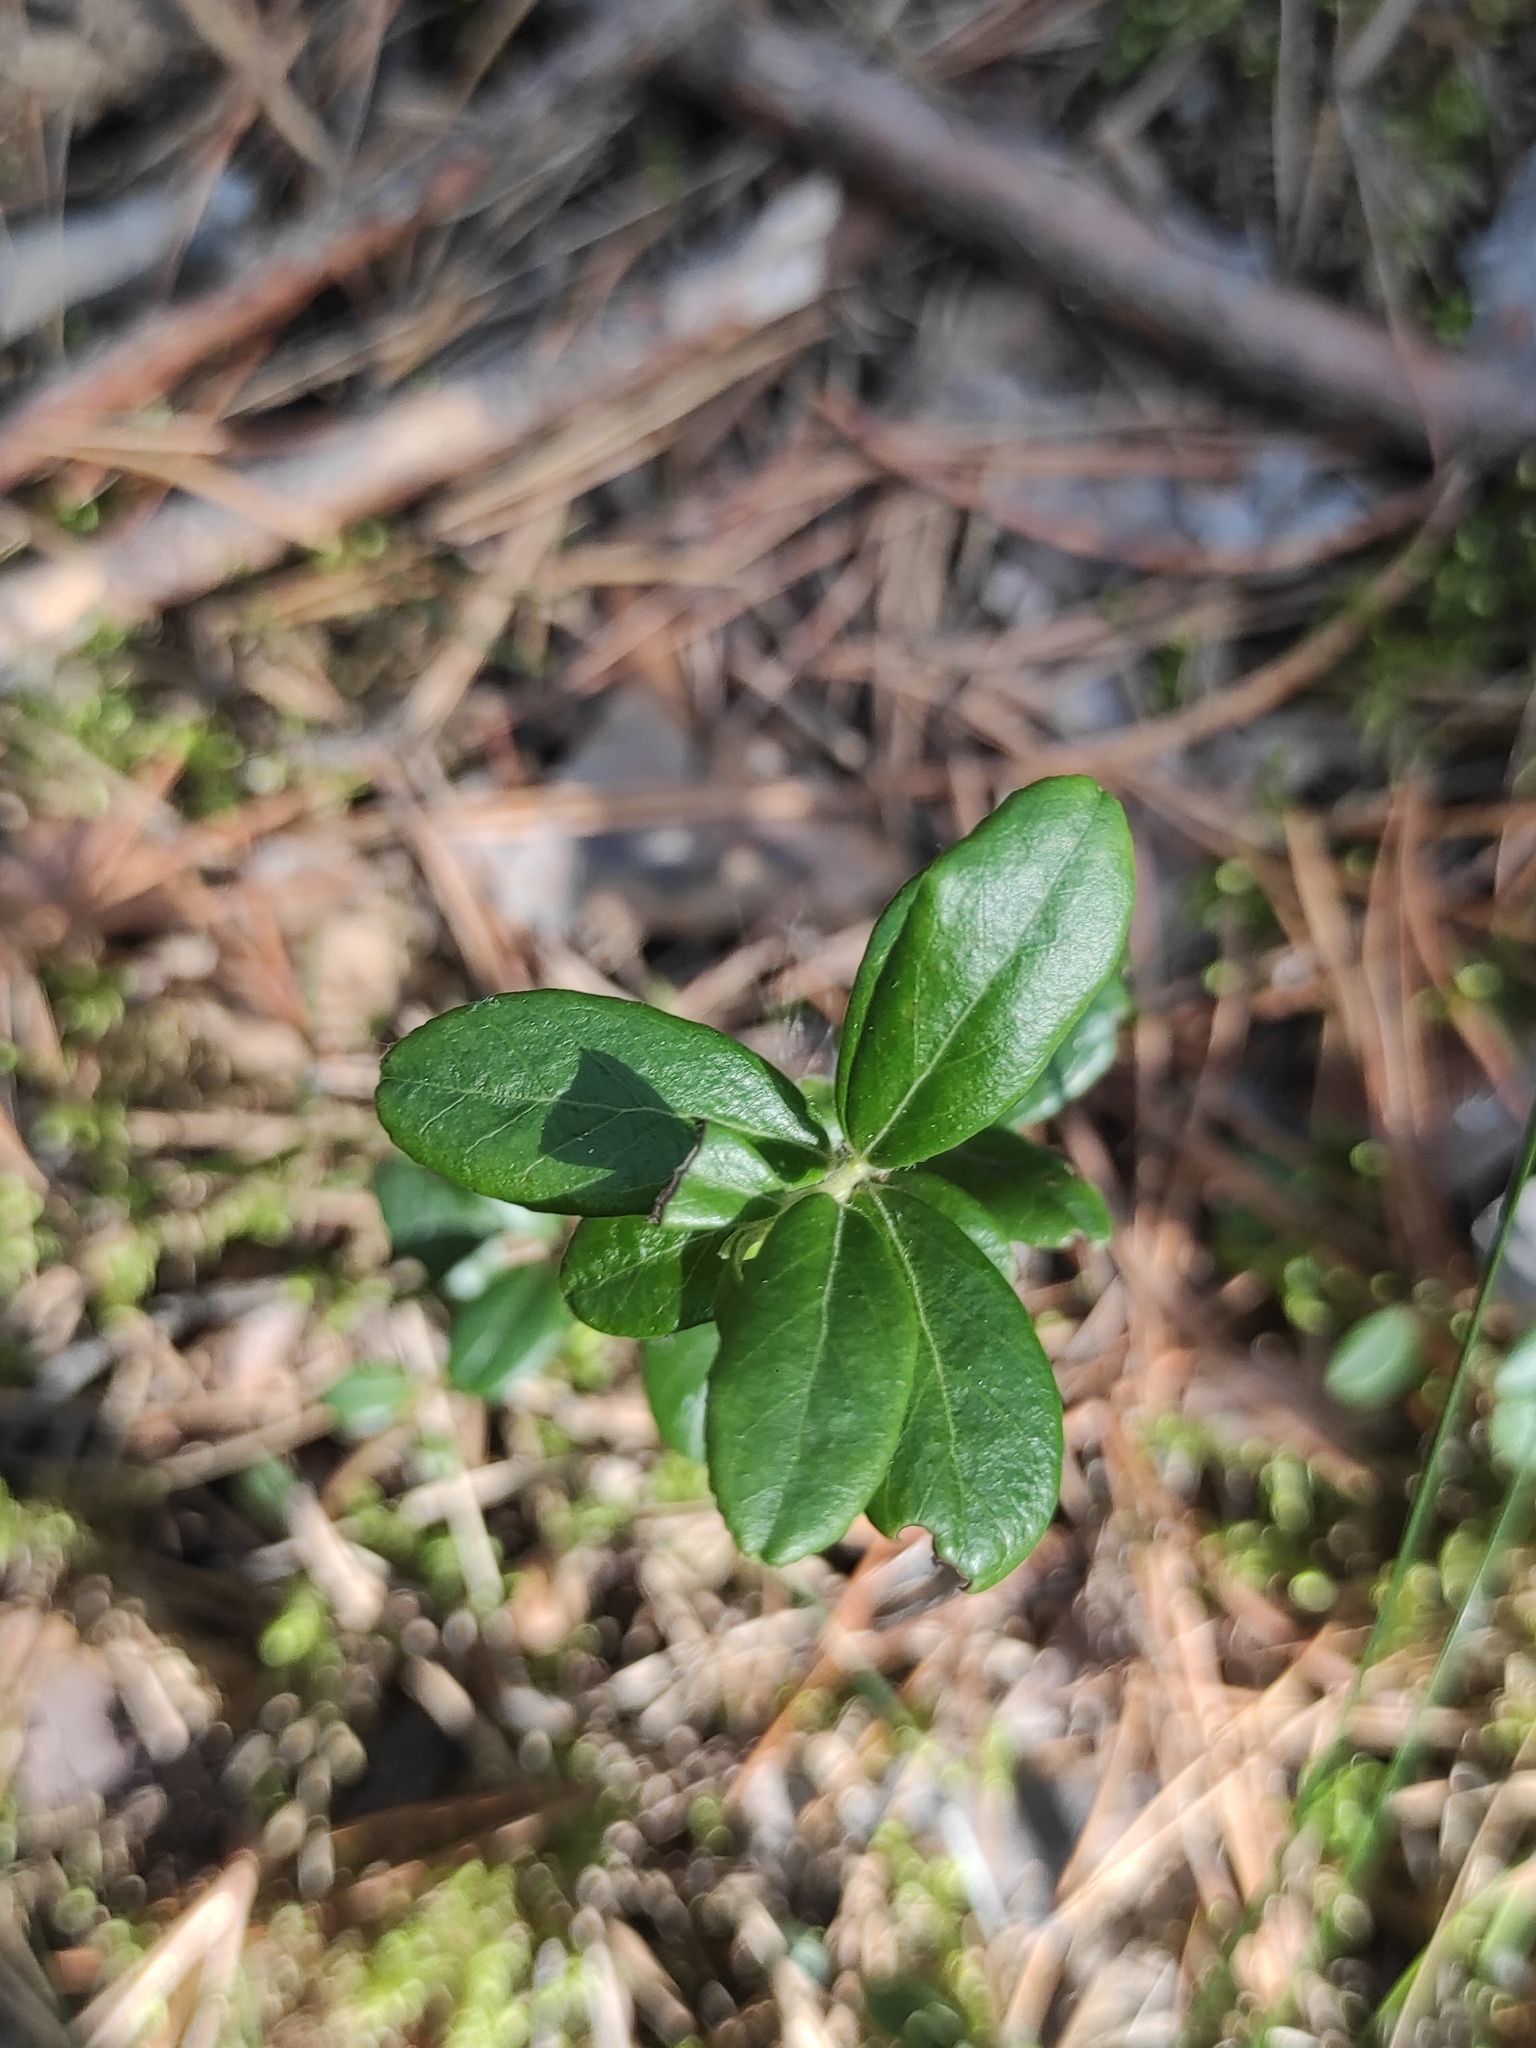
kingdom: Plantae
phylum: Tracheophyta
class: Magnoliopsida
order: Ericales
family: Ericaceae
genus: Vaccinium
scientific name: Vaccinium vitis-idaea
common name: Cowberry
